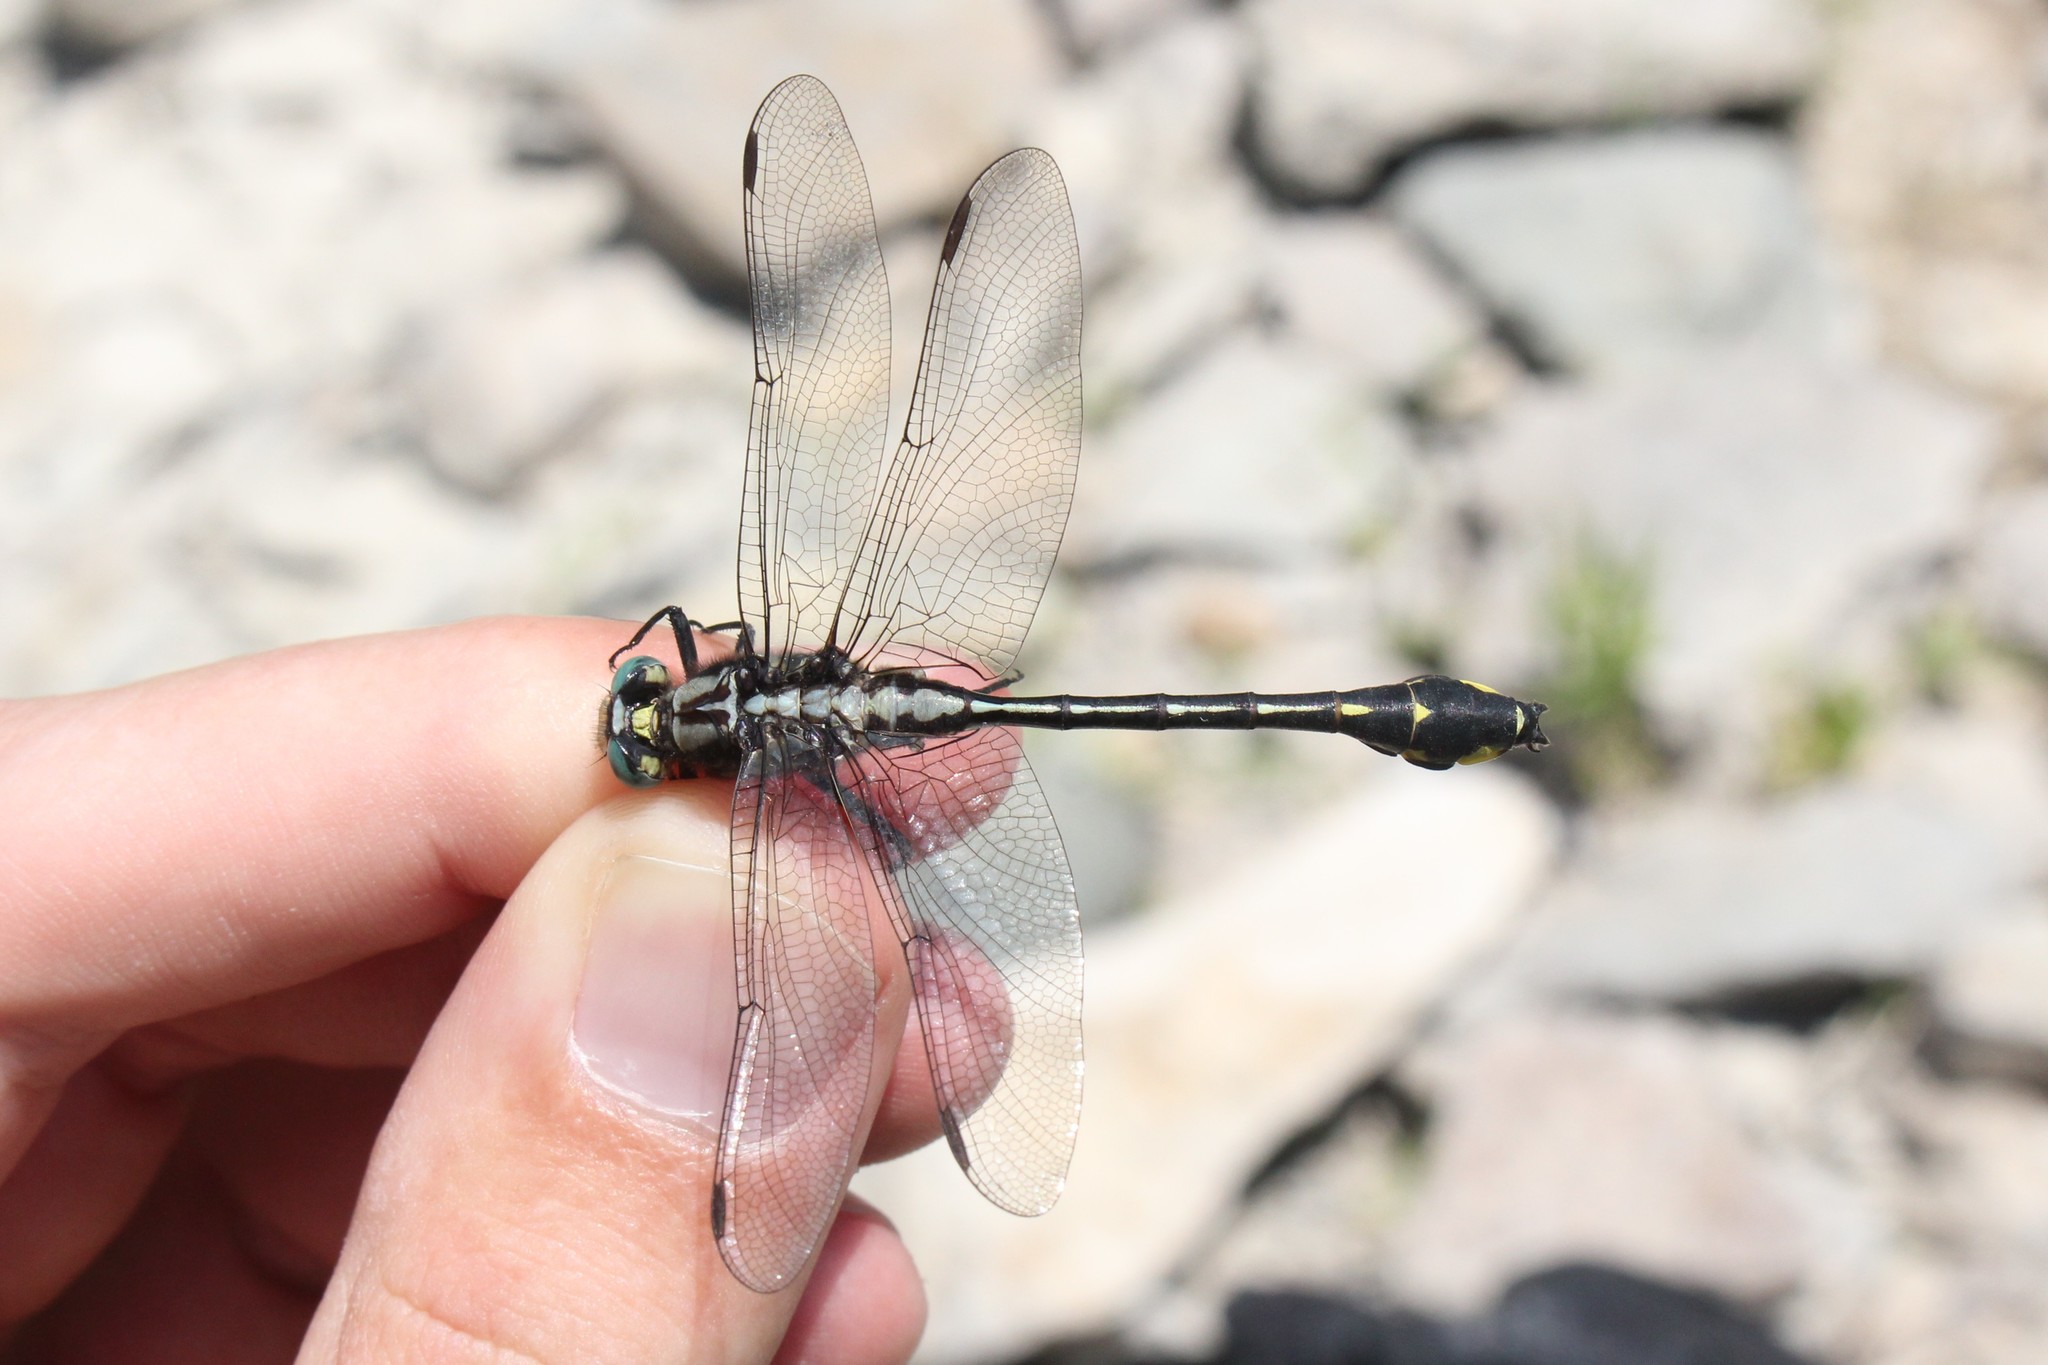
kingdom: Animalia
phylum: Arthropoda
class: Insecta
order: Odonata
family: Gomphidae
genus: Gomphurus
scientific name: Gomphurus fraternus
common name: Midland clubtail
